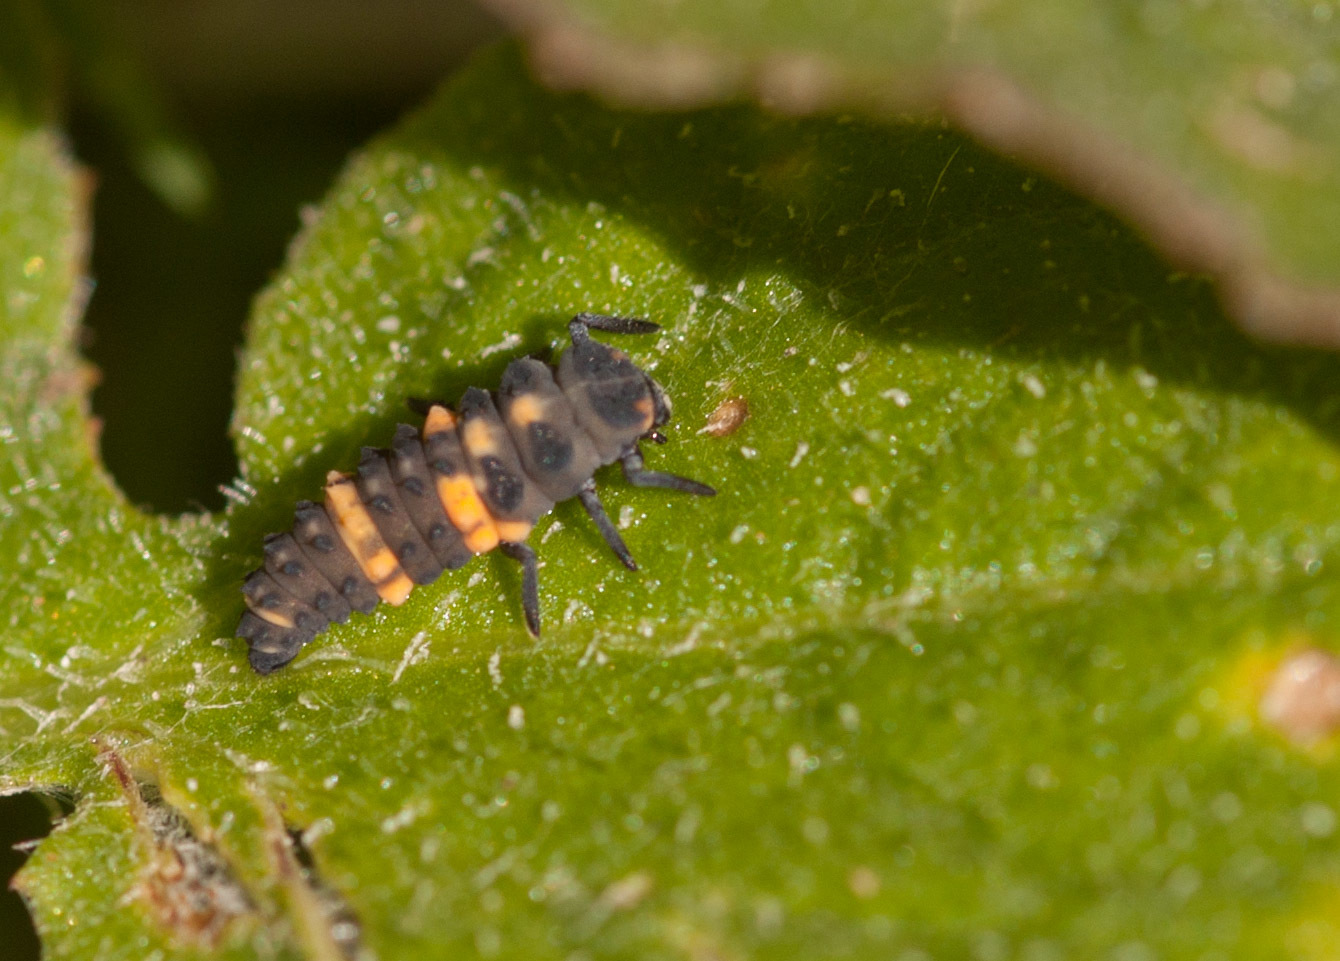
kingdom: Animalia
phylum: Arthropoda
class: Insecta
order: Coleoptera
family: Coccinellidae
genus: Coccinella
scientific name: Coccinella transversalis
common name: Transverse lady beetle
